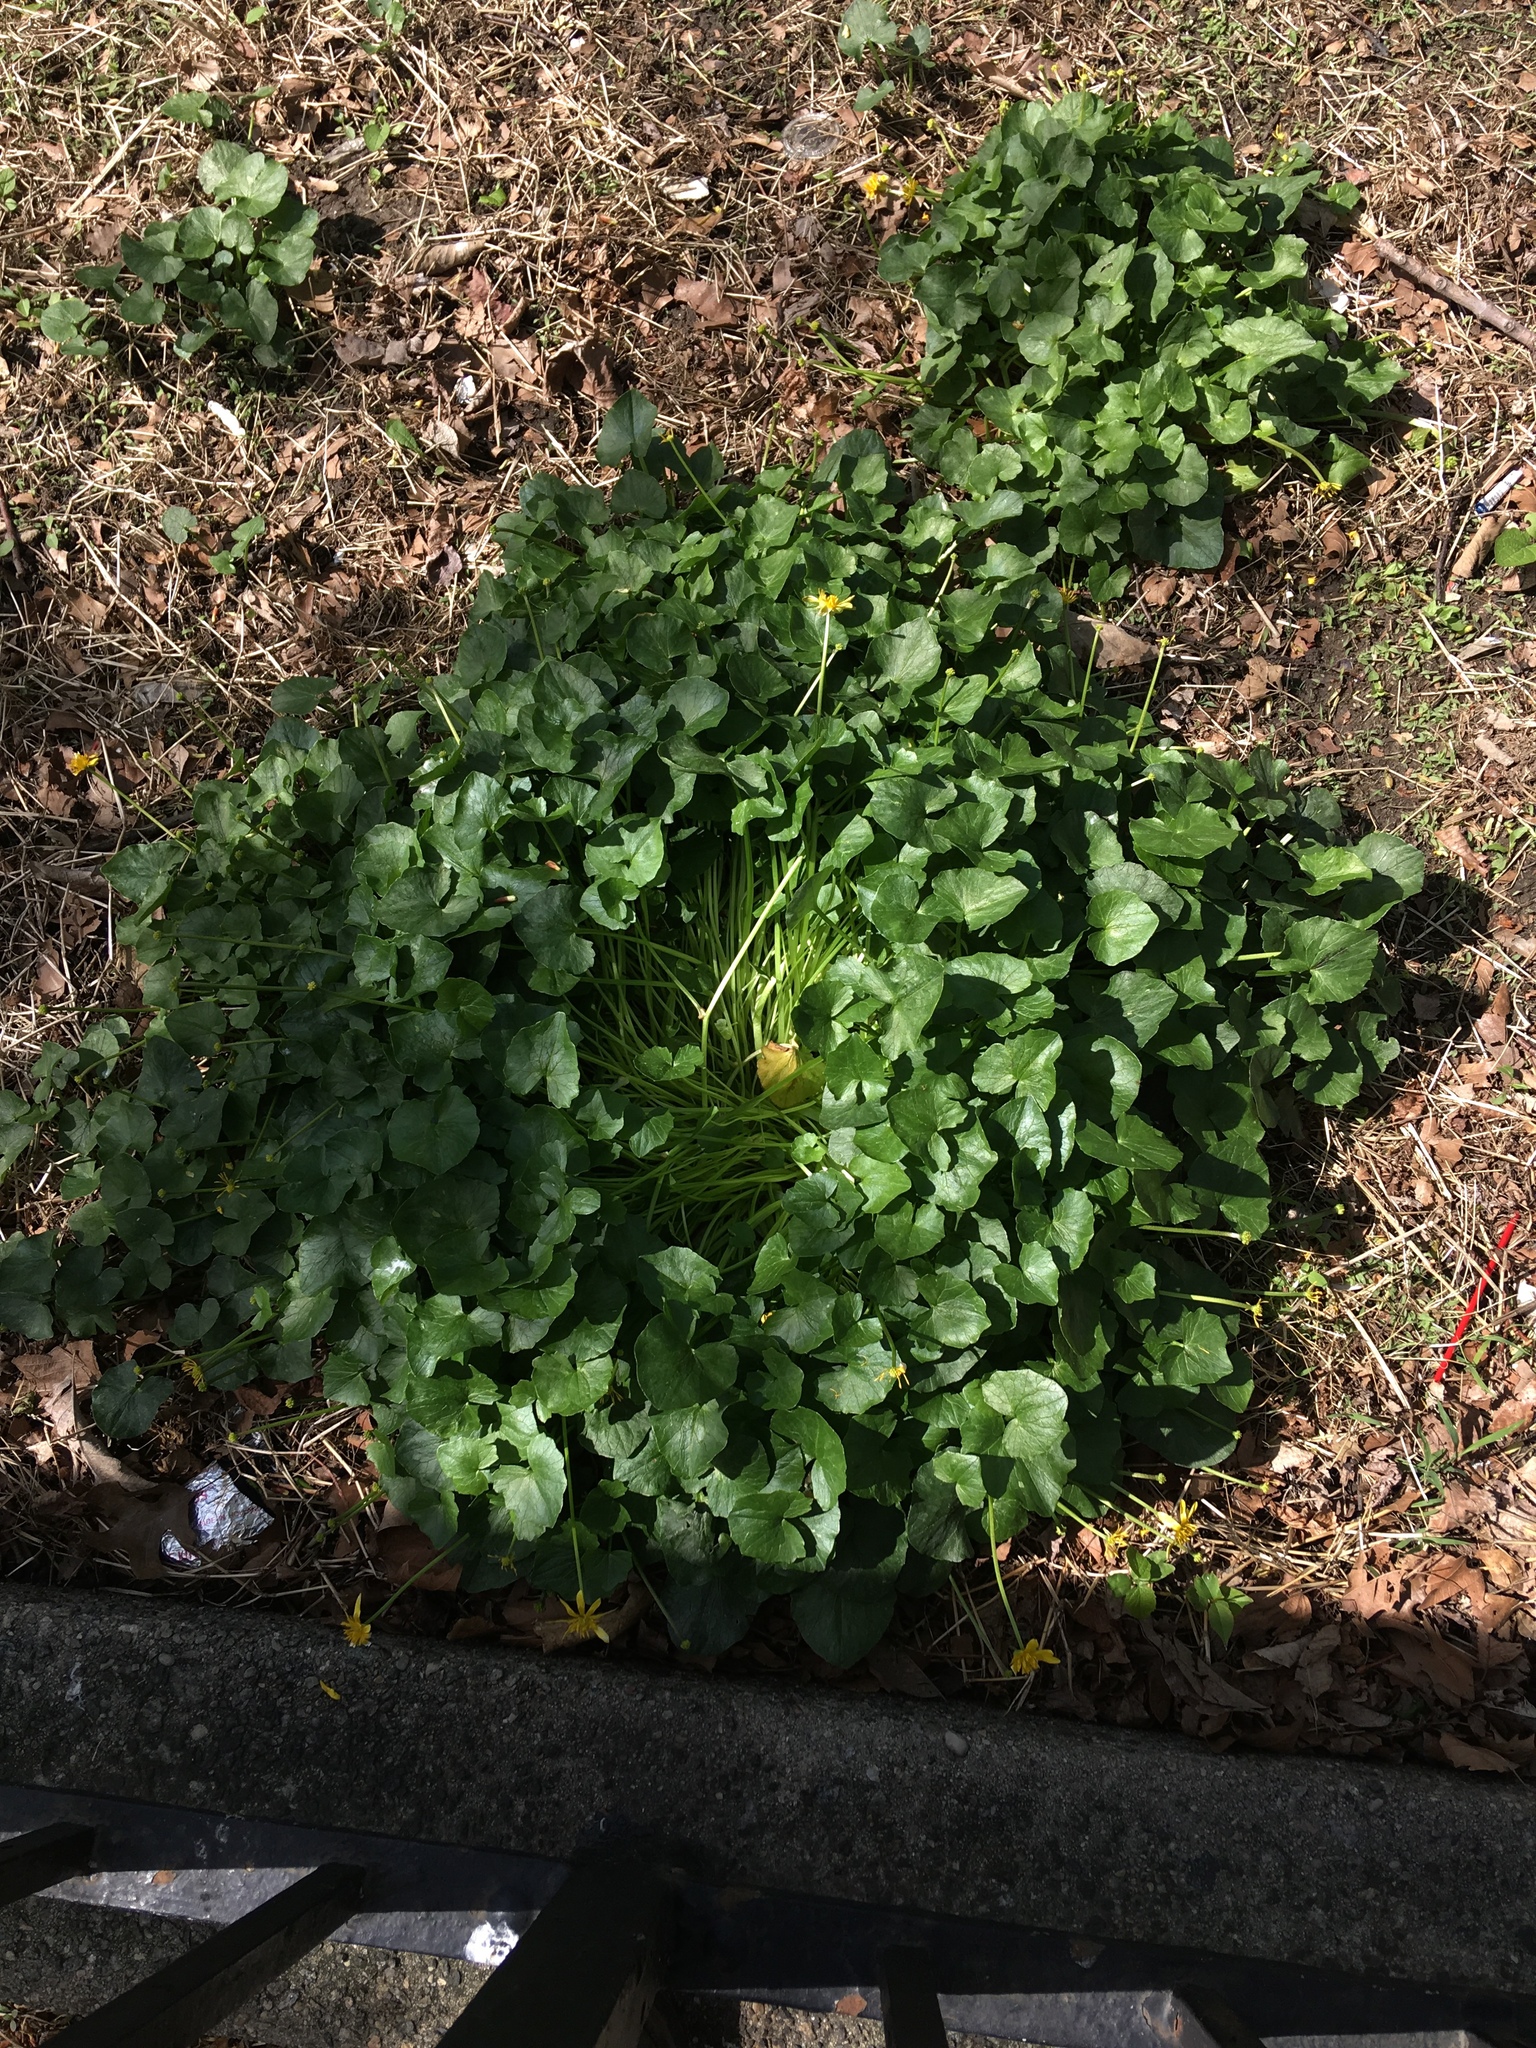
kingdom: Plantae
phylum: Tracheophyta
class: Magnoliopsida
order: Ranunculales
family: Ranunculaceae
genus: Ficaria
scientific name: Ficaria verna
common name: Lesser celandine
